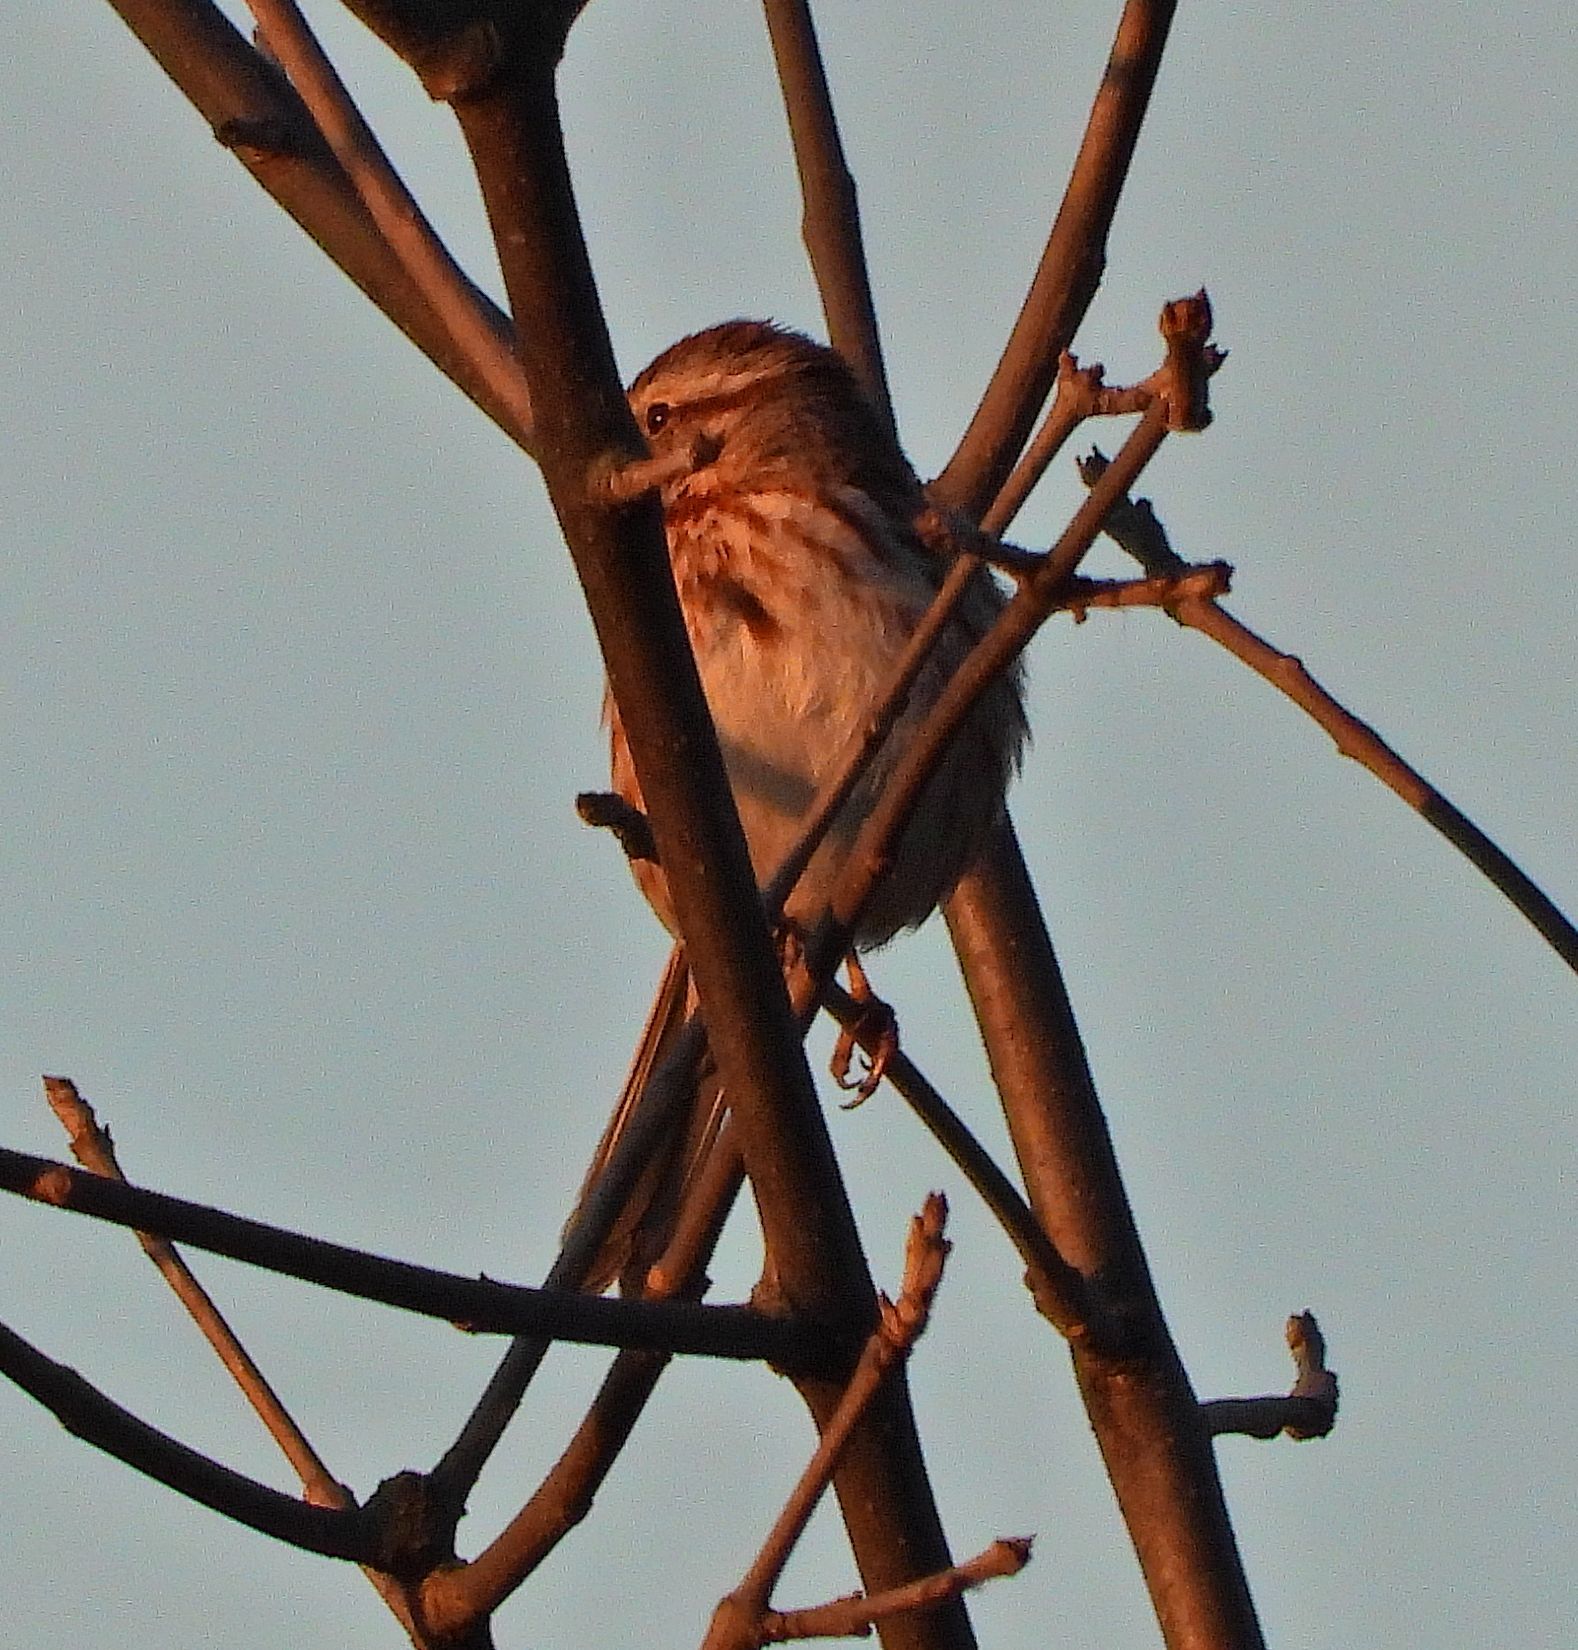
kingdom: Animalia
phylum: Chordata
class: Aves
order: Passeriformes
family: Passerellidae
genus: Melospiza
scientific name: Melospiza melodia
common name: Song sparrow
